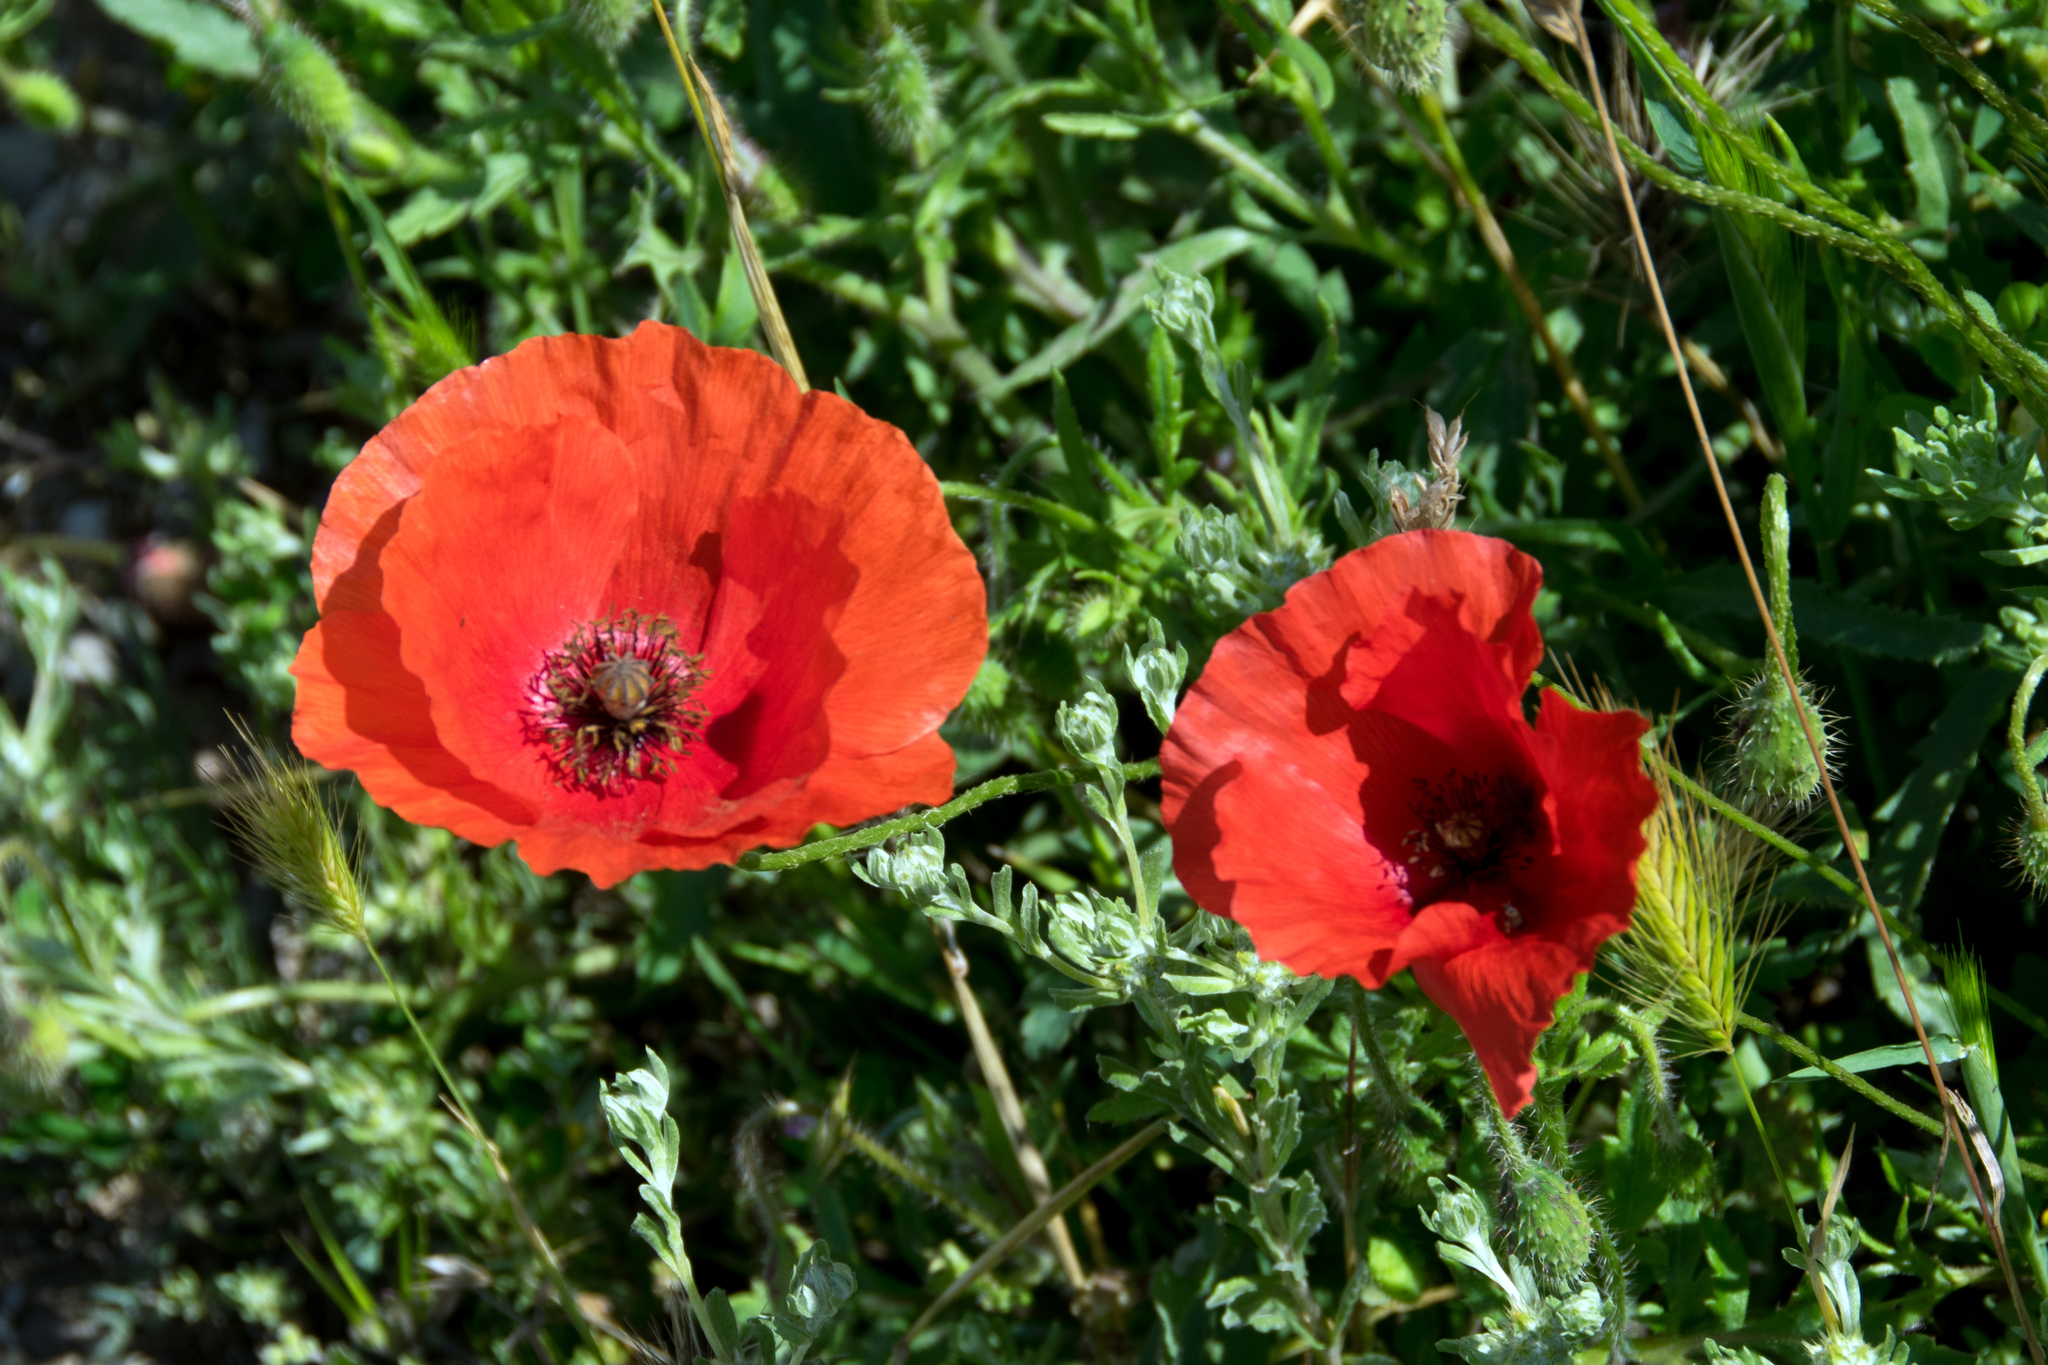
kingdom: Plantae
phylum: Tracheophyta
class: Magnoliopsida
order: Ranunculales
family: Papaveraceae
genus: Papaver
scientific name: Papaver rhoeas
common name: Corn poppy
